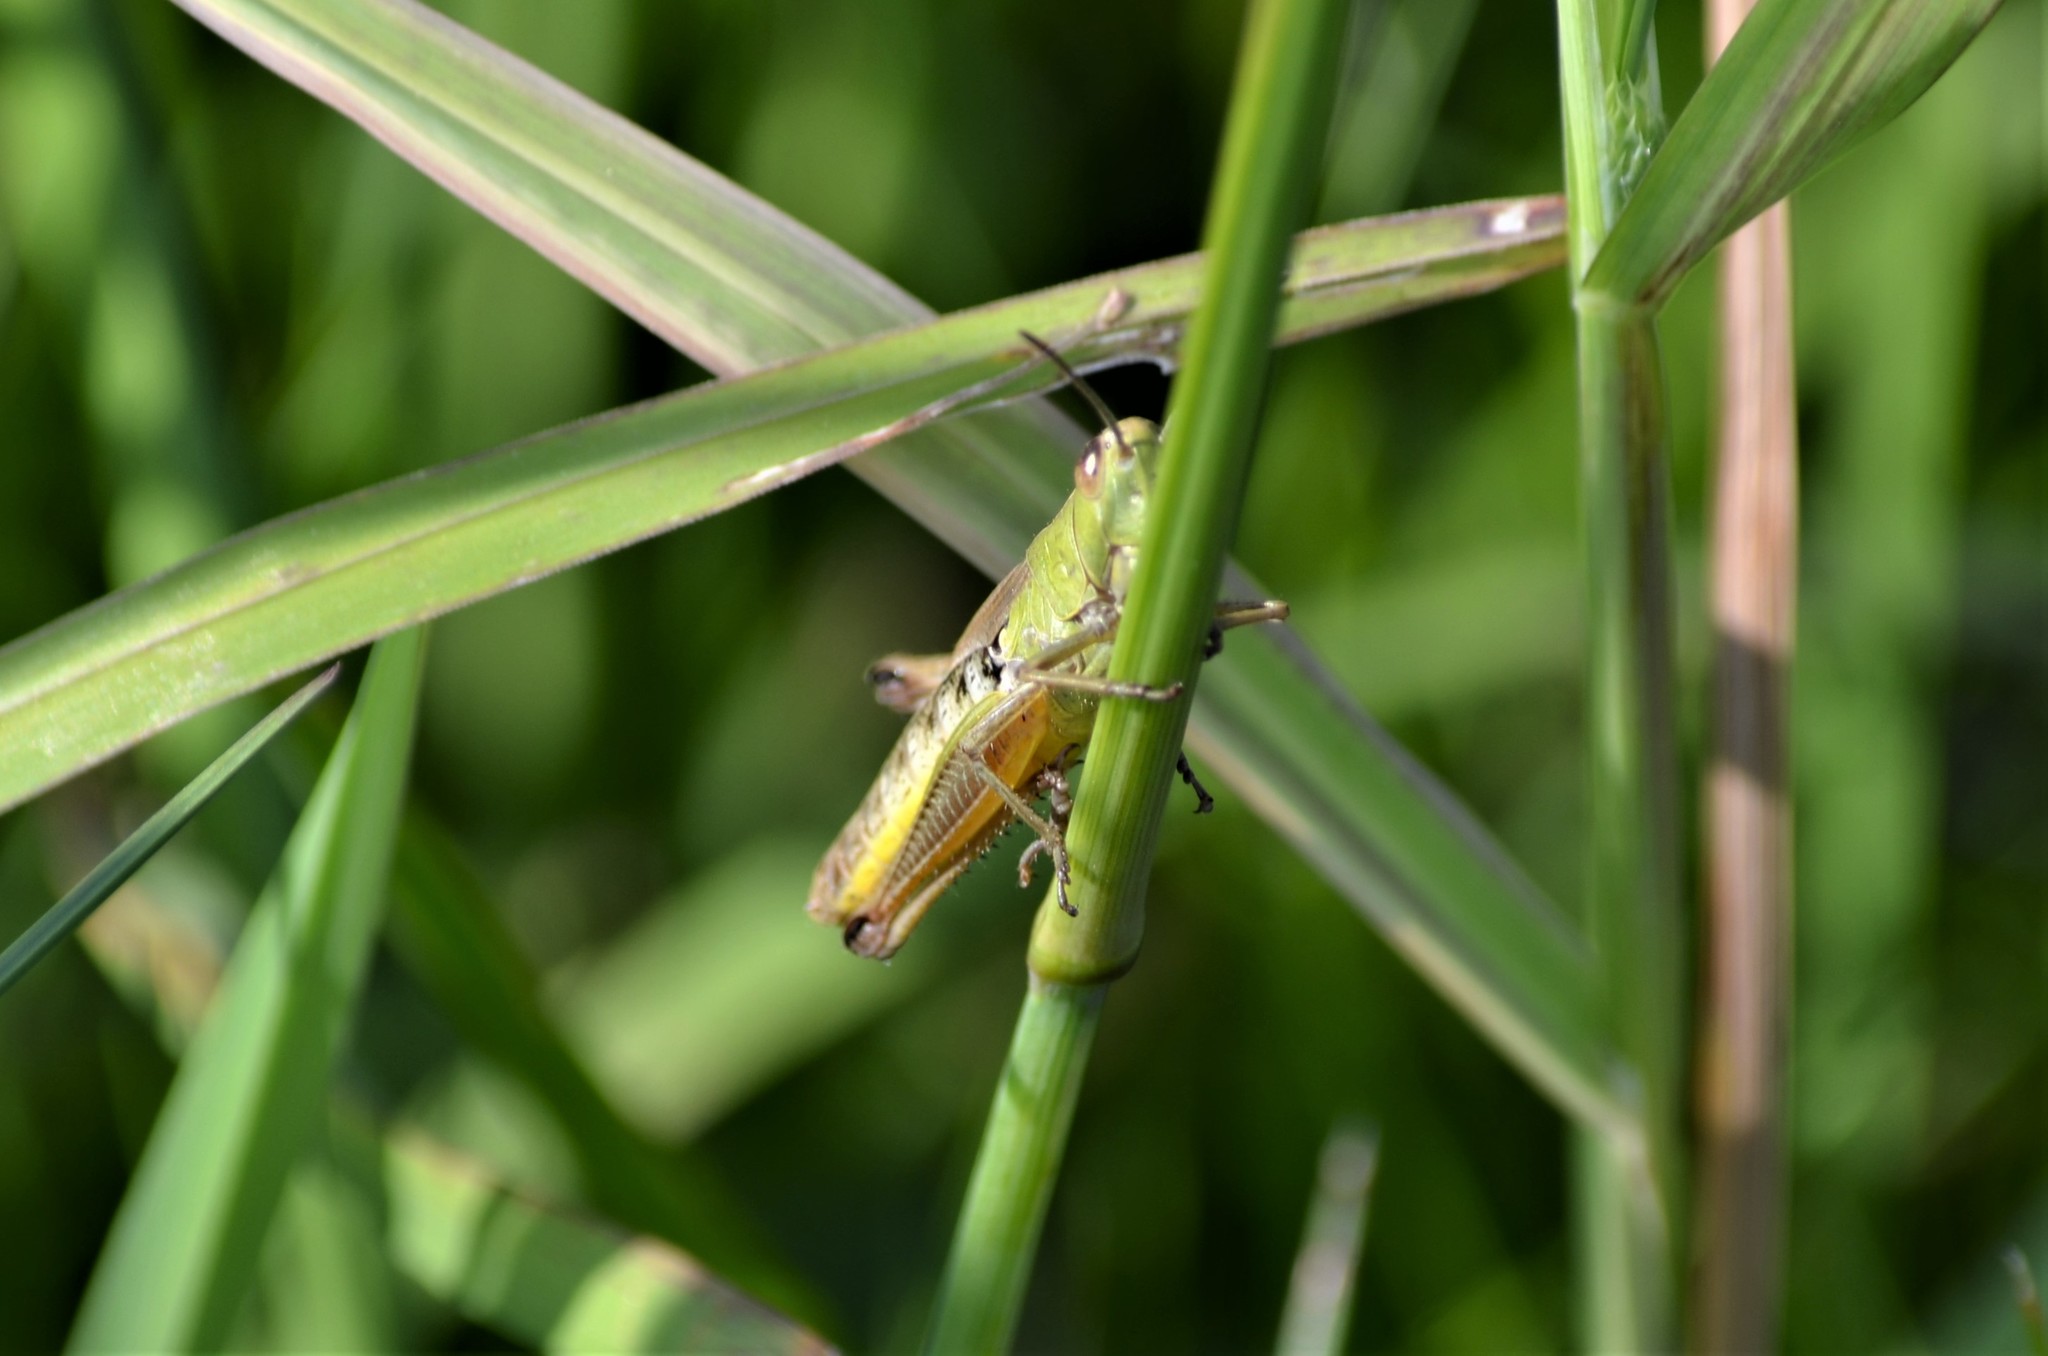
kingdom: Animalia
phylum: Arthropoda
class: Insecta
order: Orthoptera
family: Acrididae
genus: Pseudochorthippus
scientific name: Pseudochorthippus parallelus
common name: Meadow grasshopper
